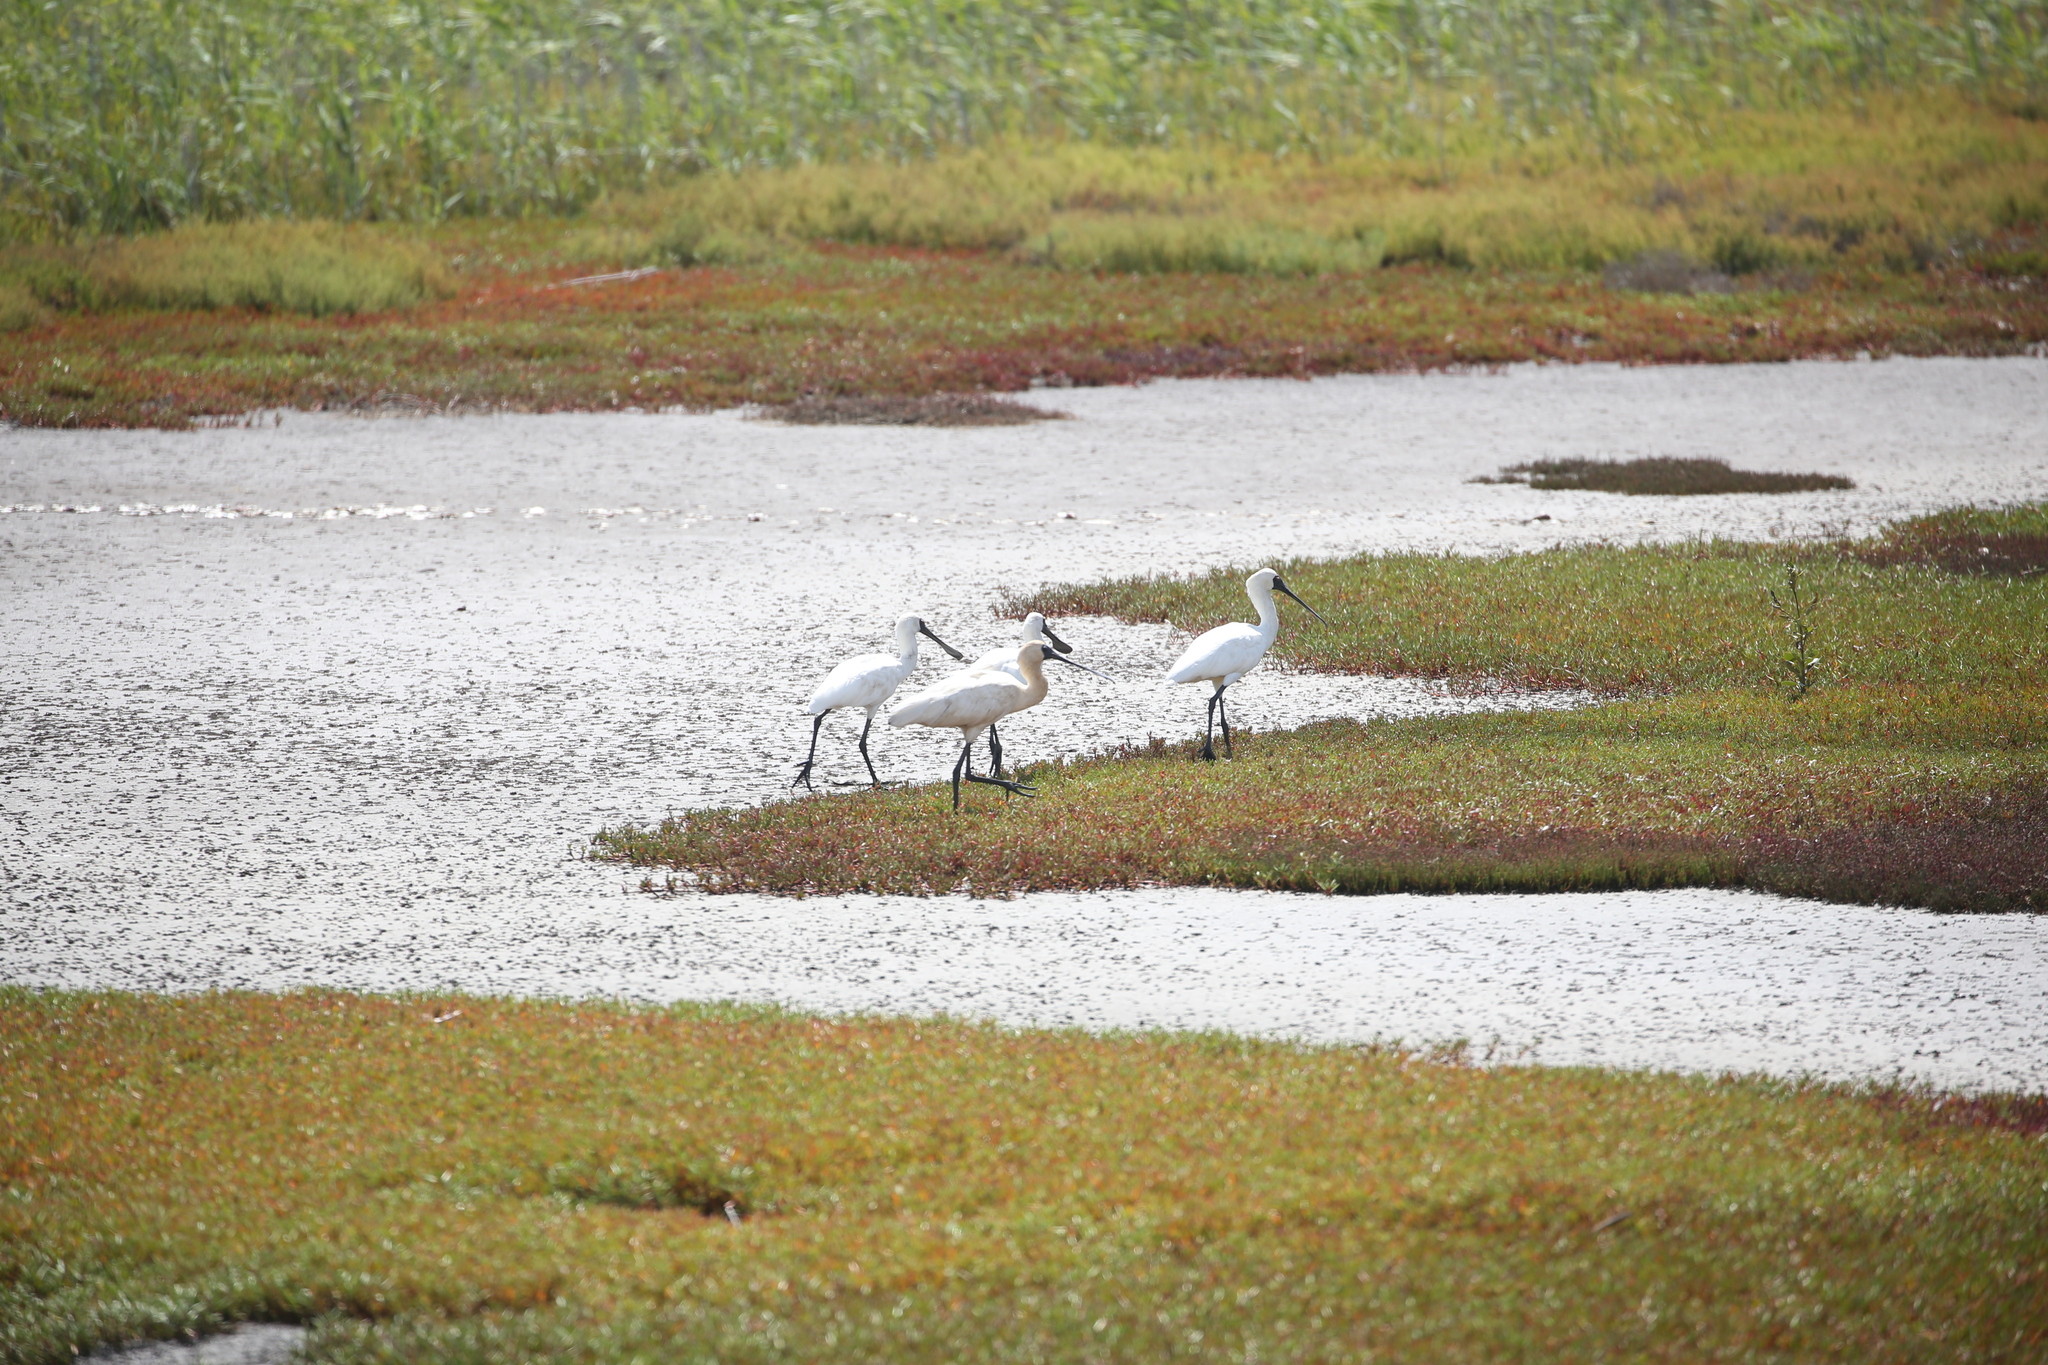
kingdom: Animalia
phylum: Chordata
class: Aves
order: Pelecaniformes
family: Threskiornithidae
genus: Platalea
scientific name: Platalea regia
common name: Royal spoonbill
